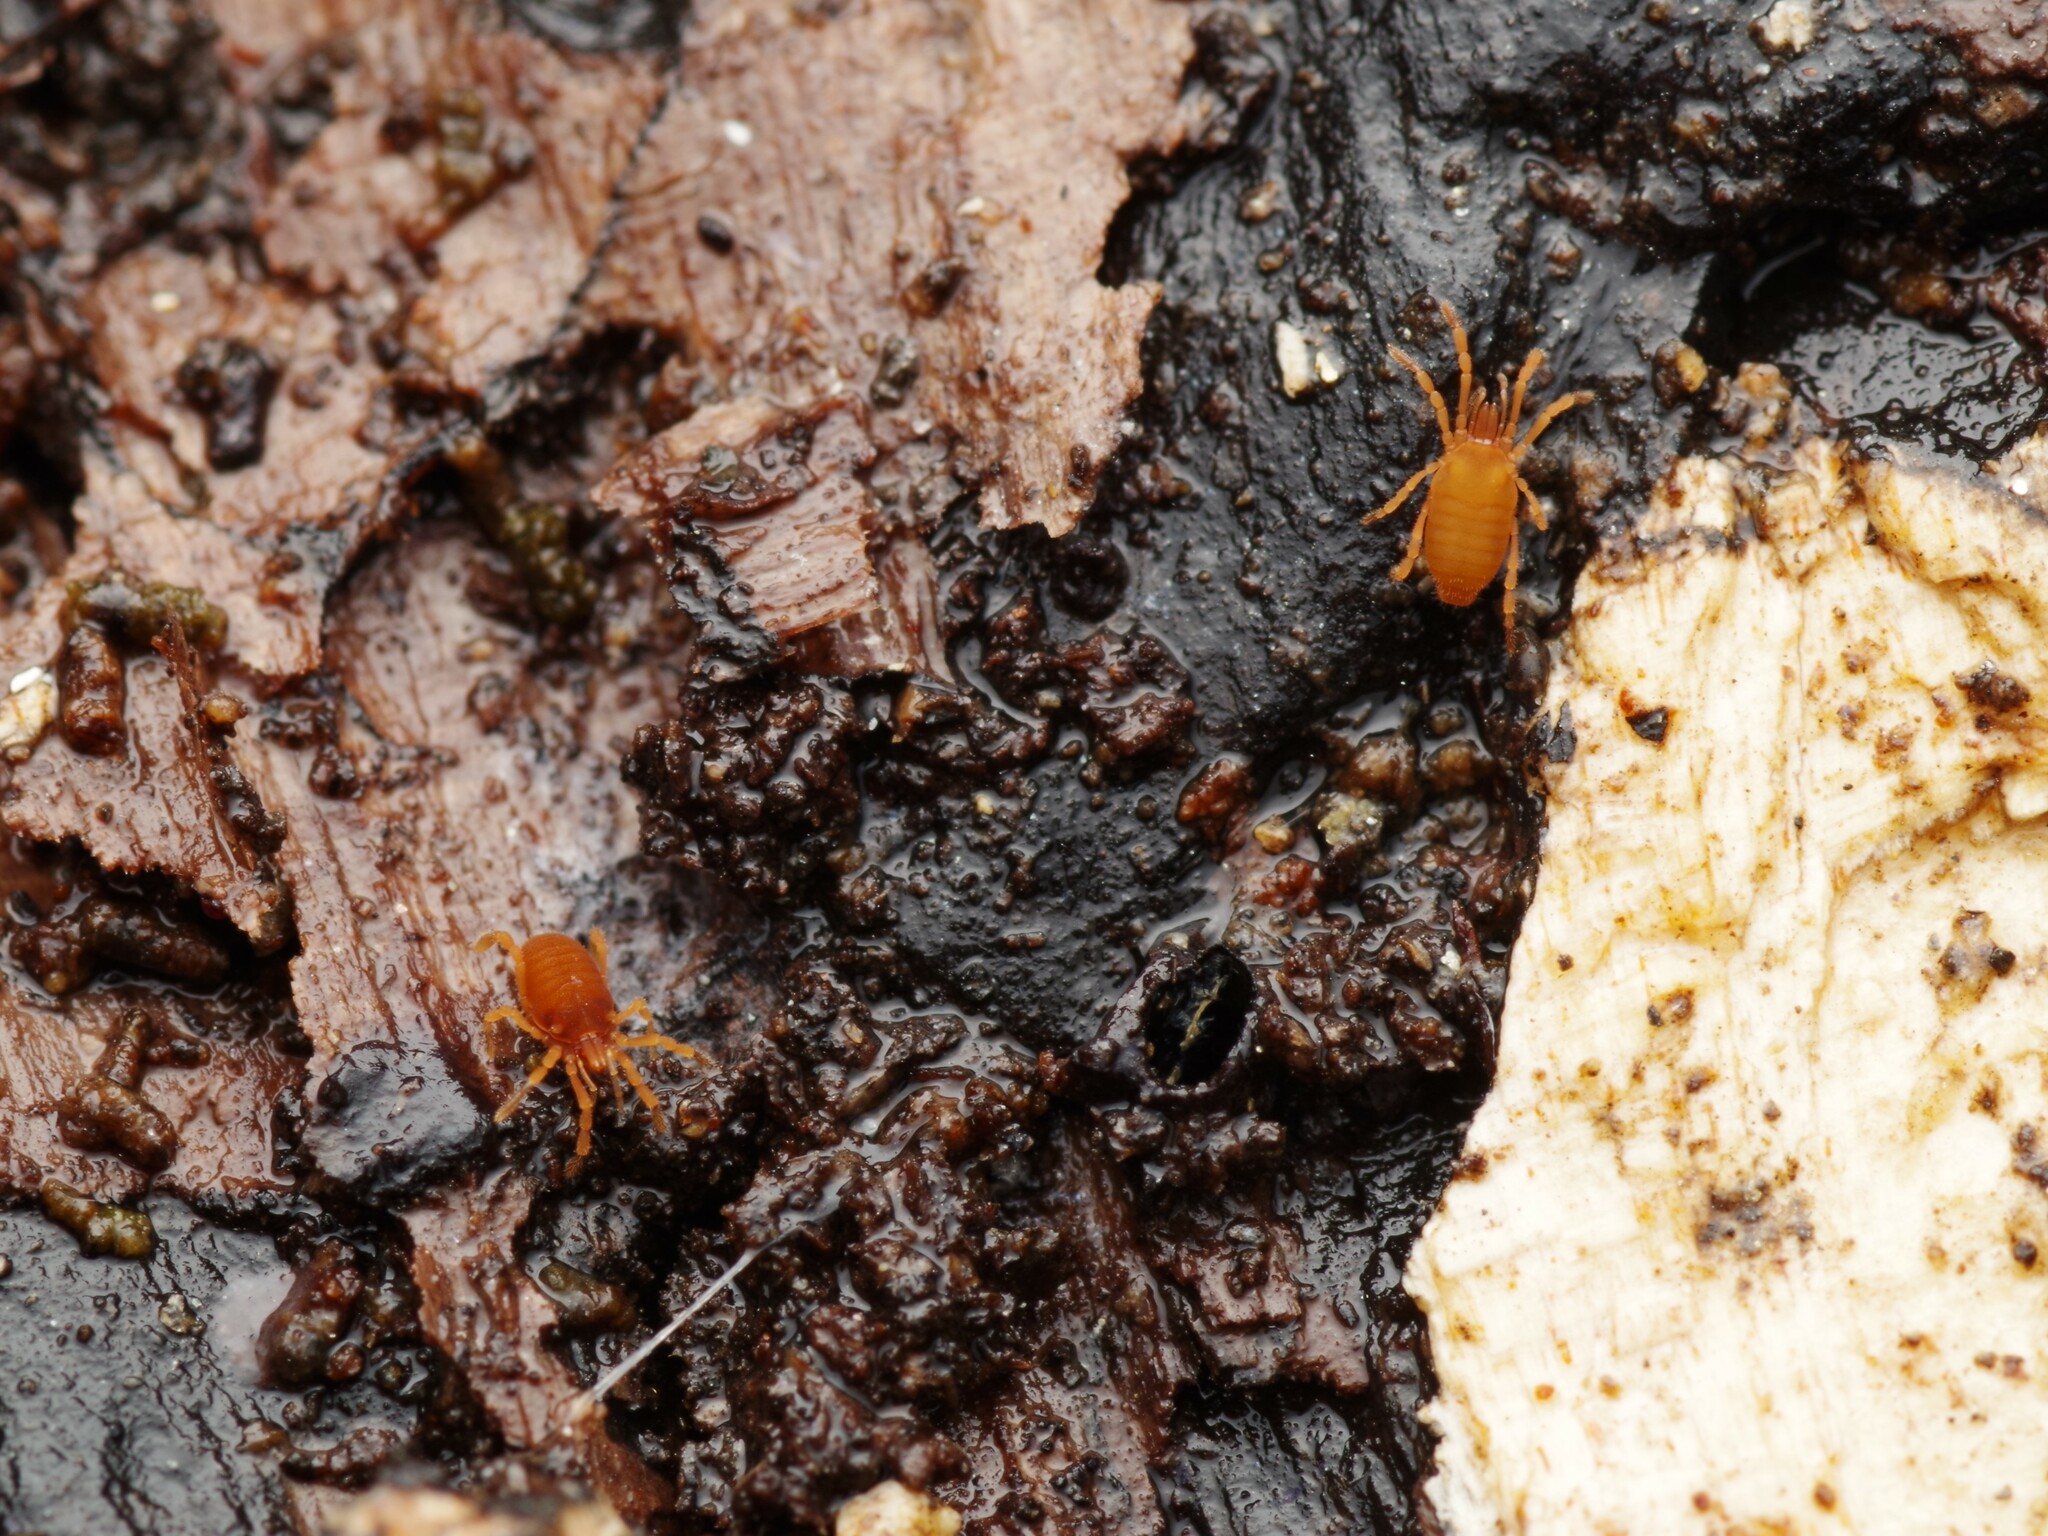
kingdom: Animalia
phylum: Arthropoda
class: Arachnida
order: Opiliones
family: Sironidae
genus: Siro
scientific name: Siro rubens
